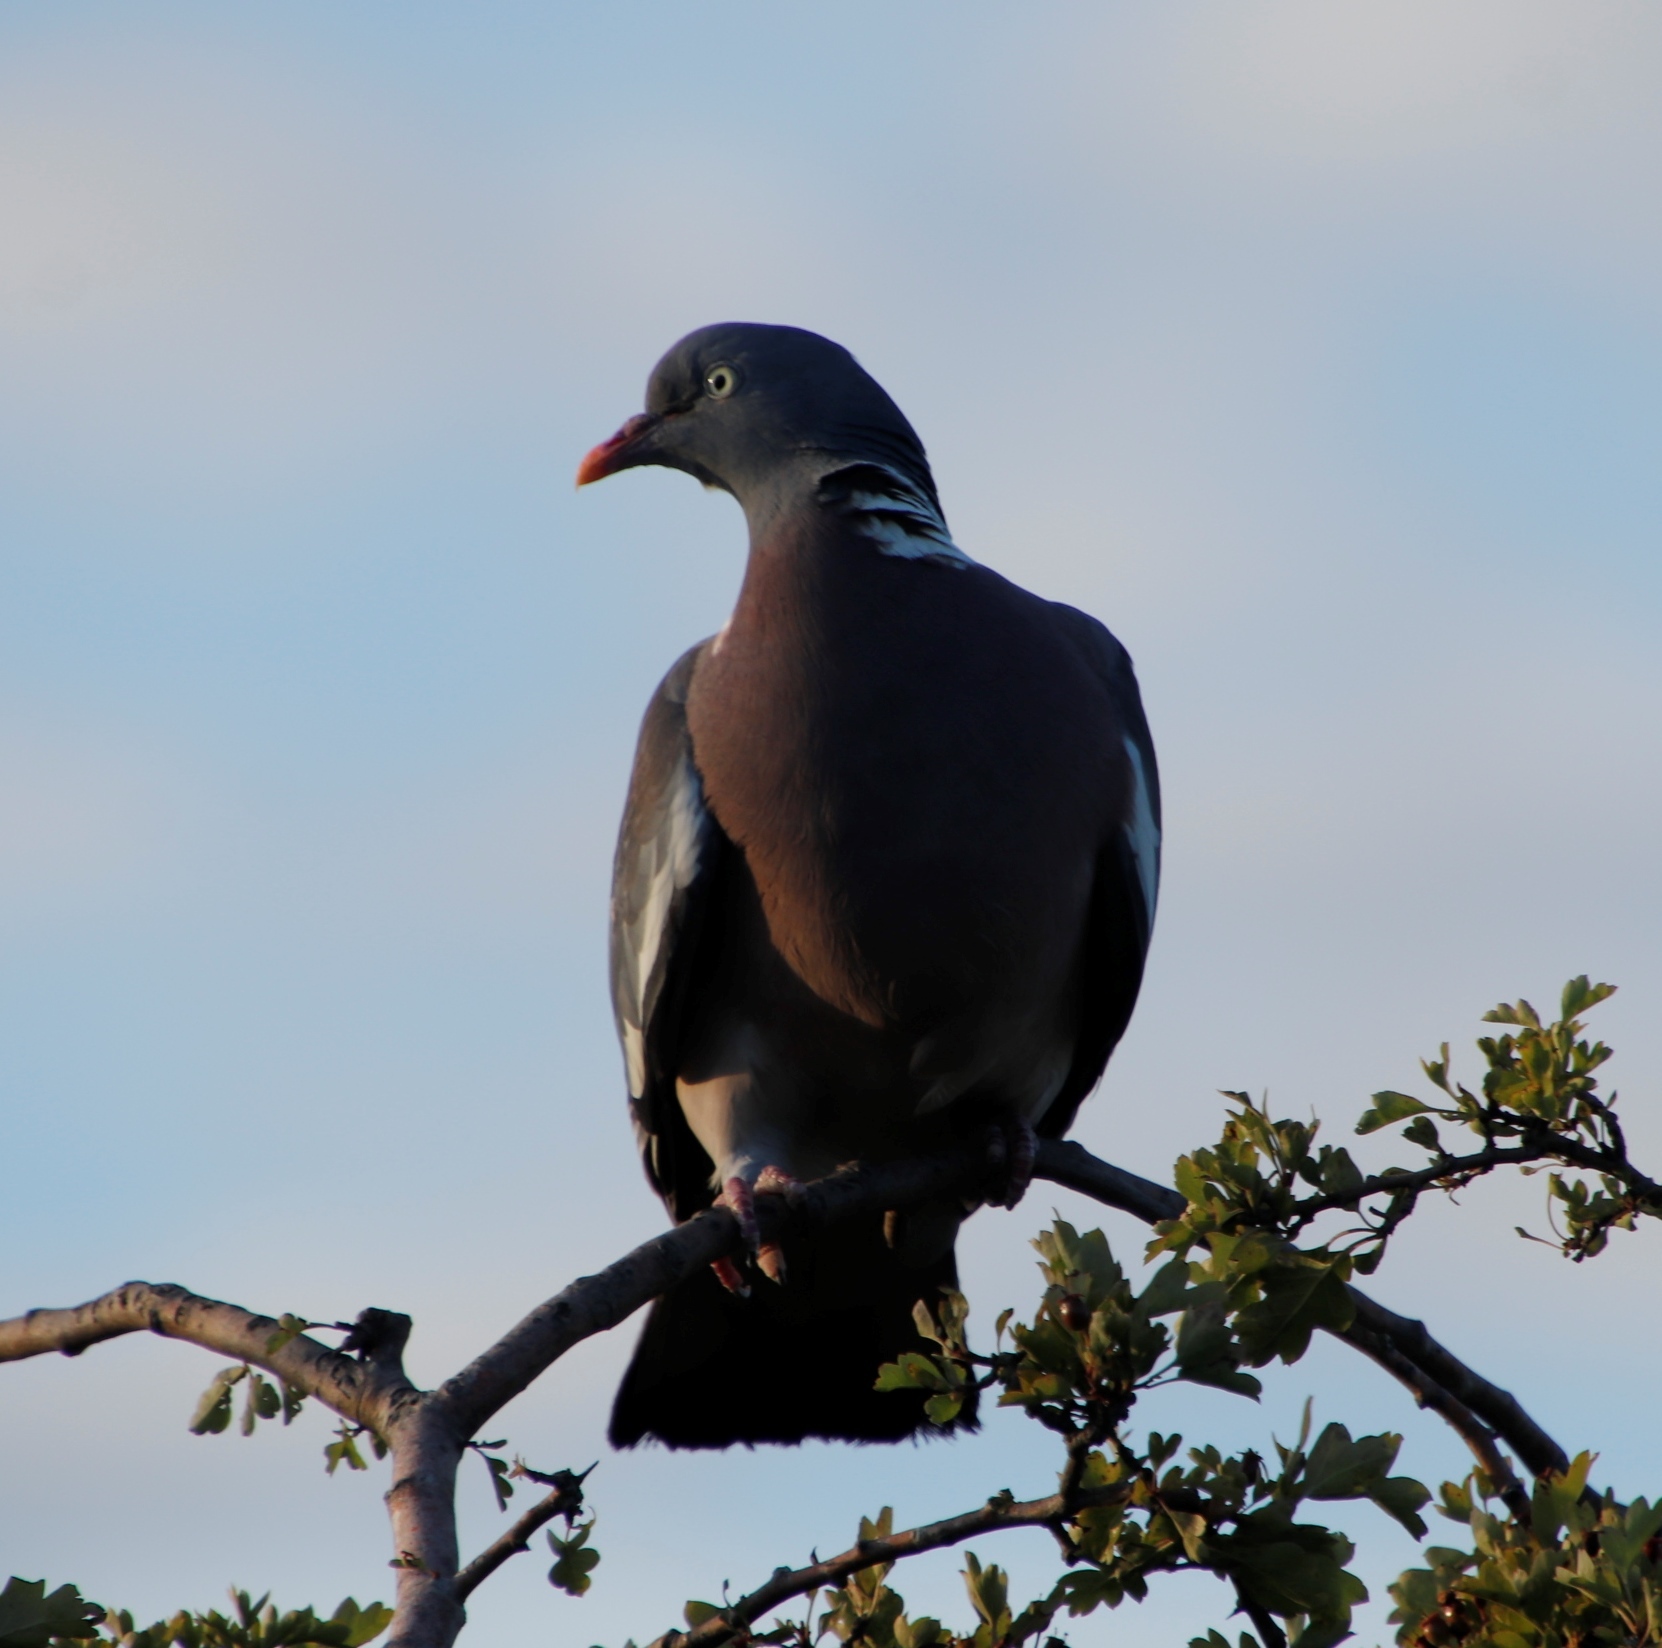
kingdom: Animalia
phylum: Chordata
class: Aves
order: Columbiformes
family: Columbidae
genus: Columba
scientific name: Columba palumbus
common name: Common wood pigeon
